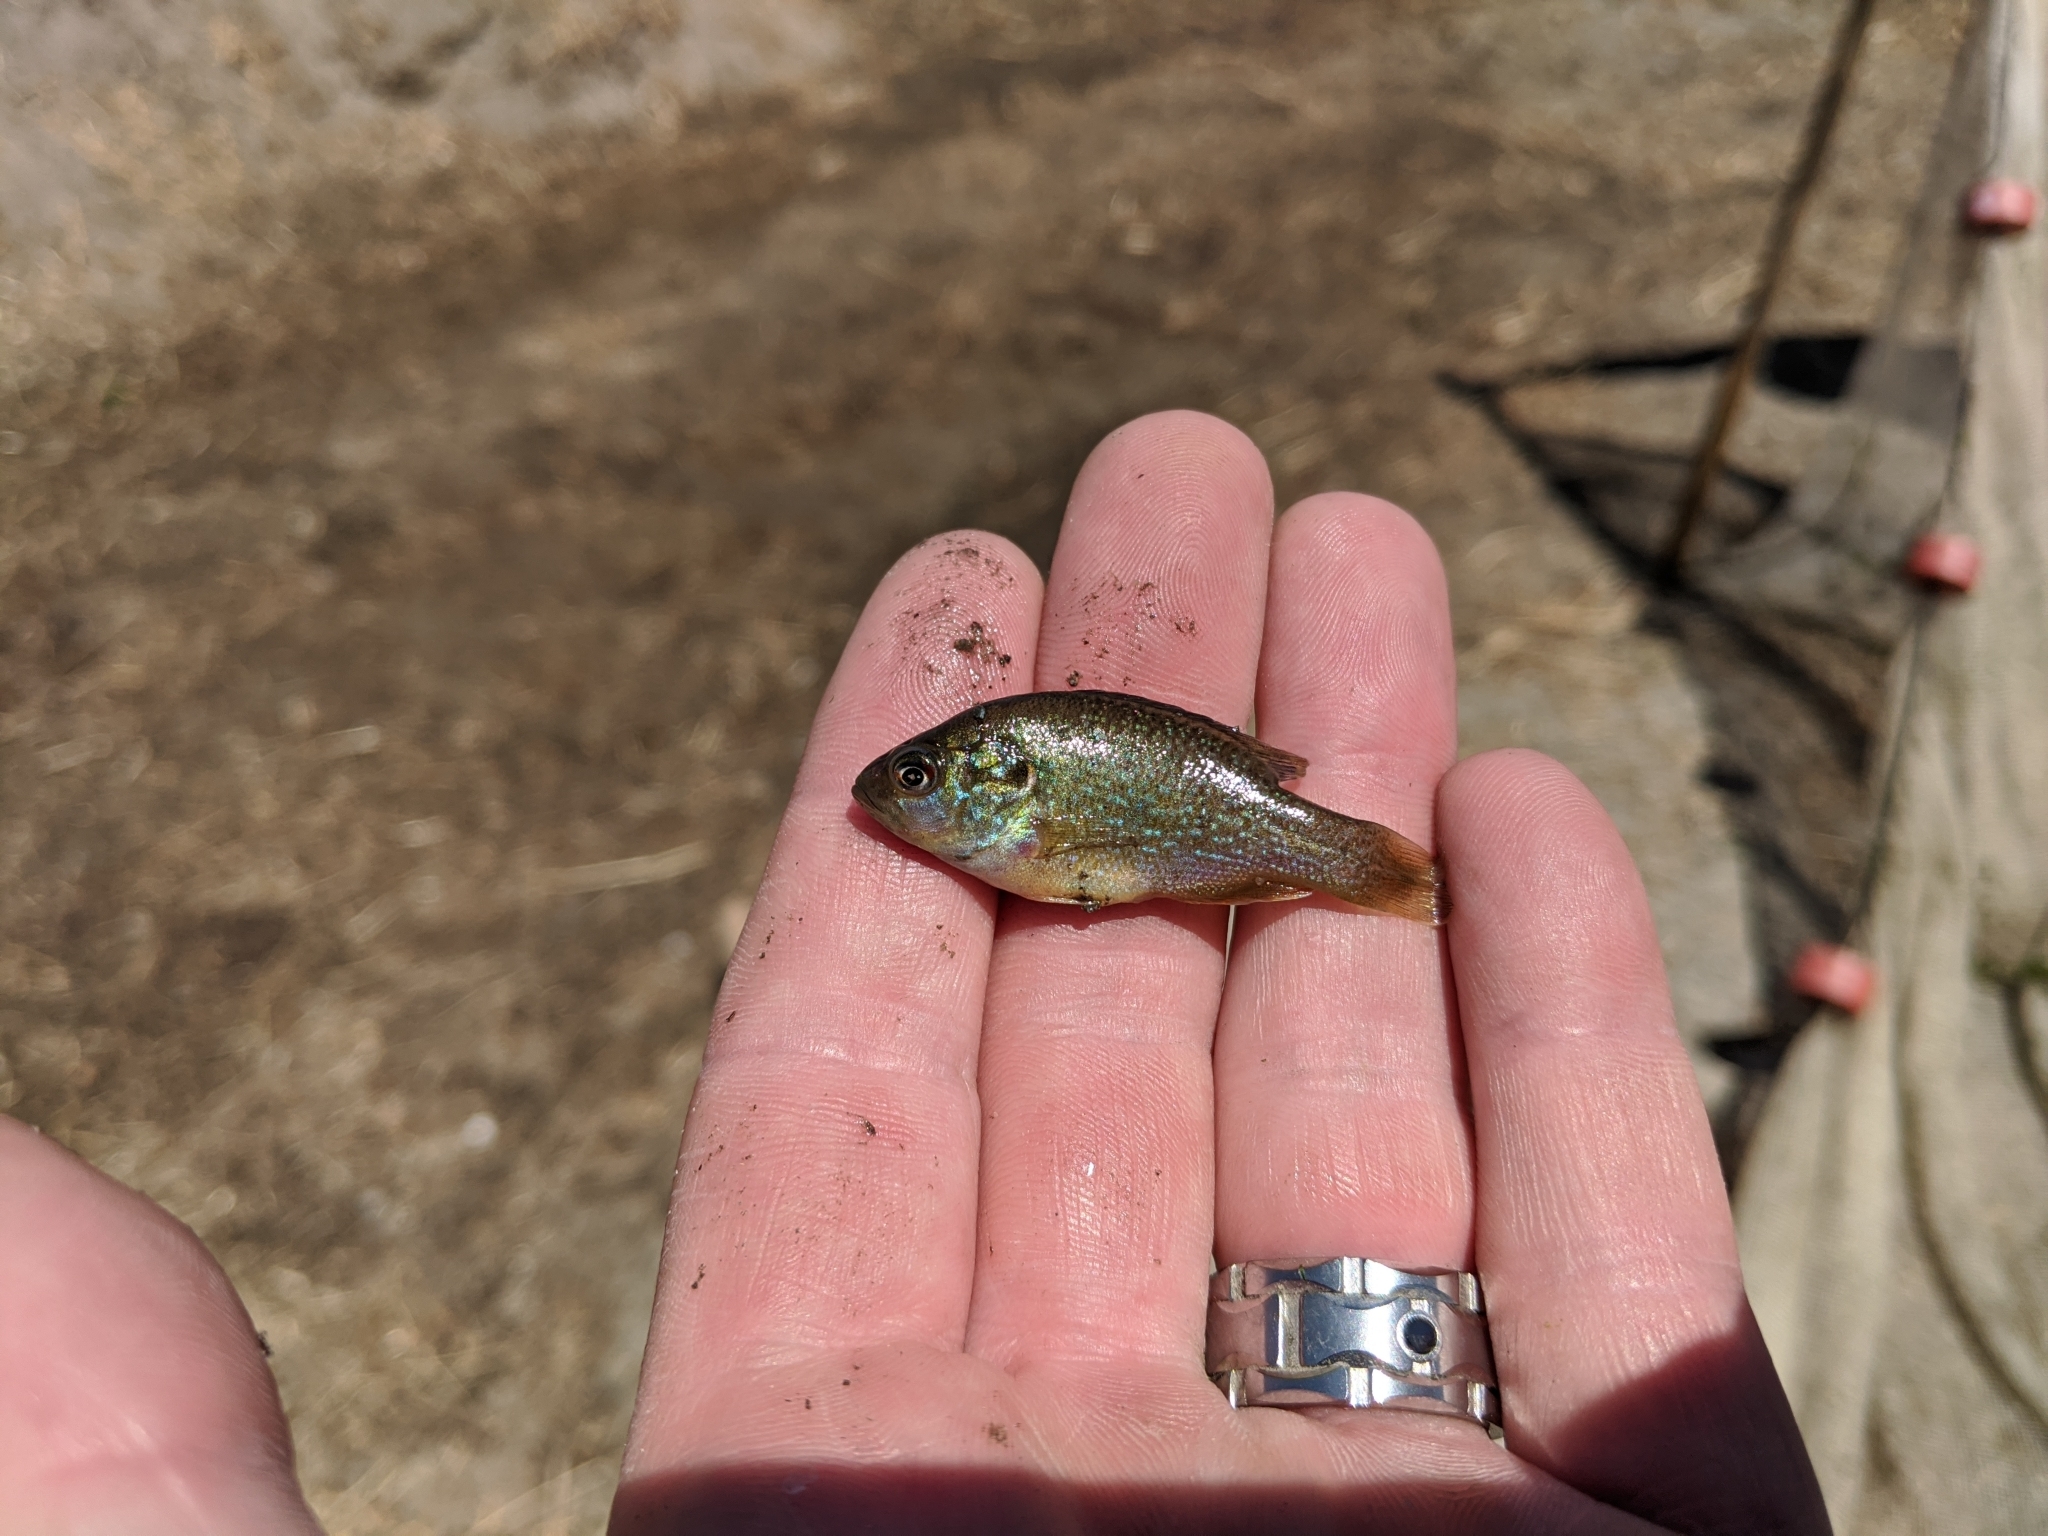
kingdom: Animalia
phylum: Chordata
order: Perciformes
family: Centrarchidae
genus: Lepomis
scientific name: Lepomis cyanellus
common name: Green sunfish
